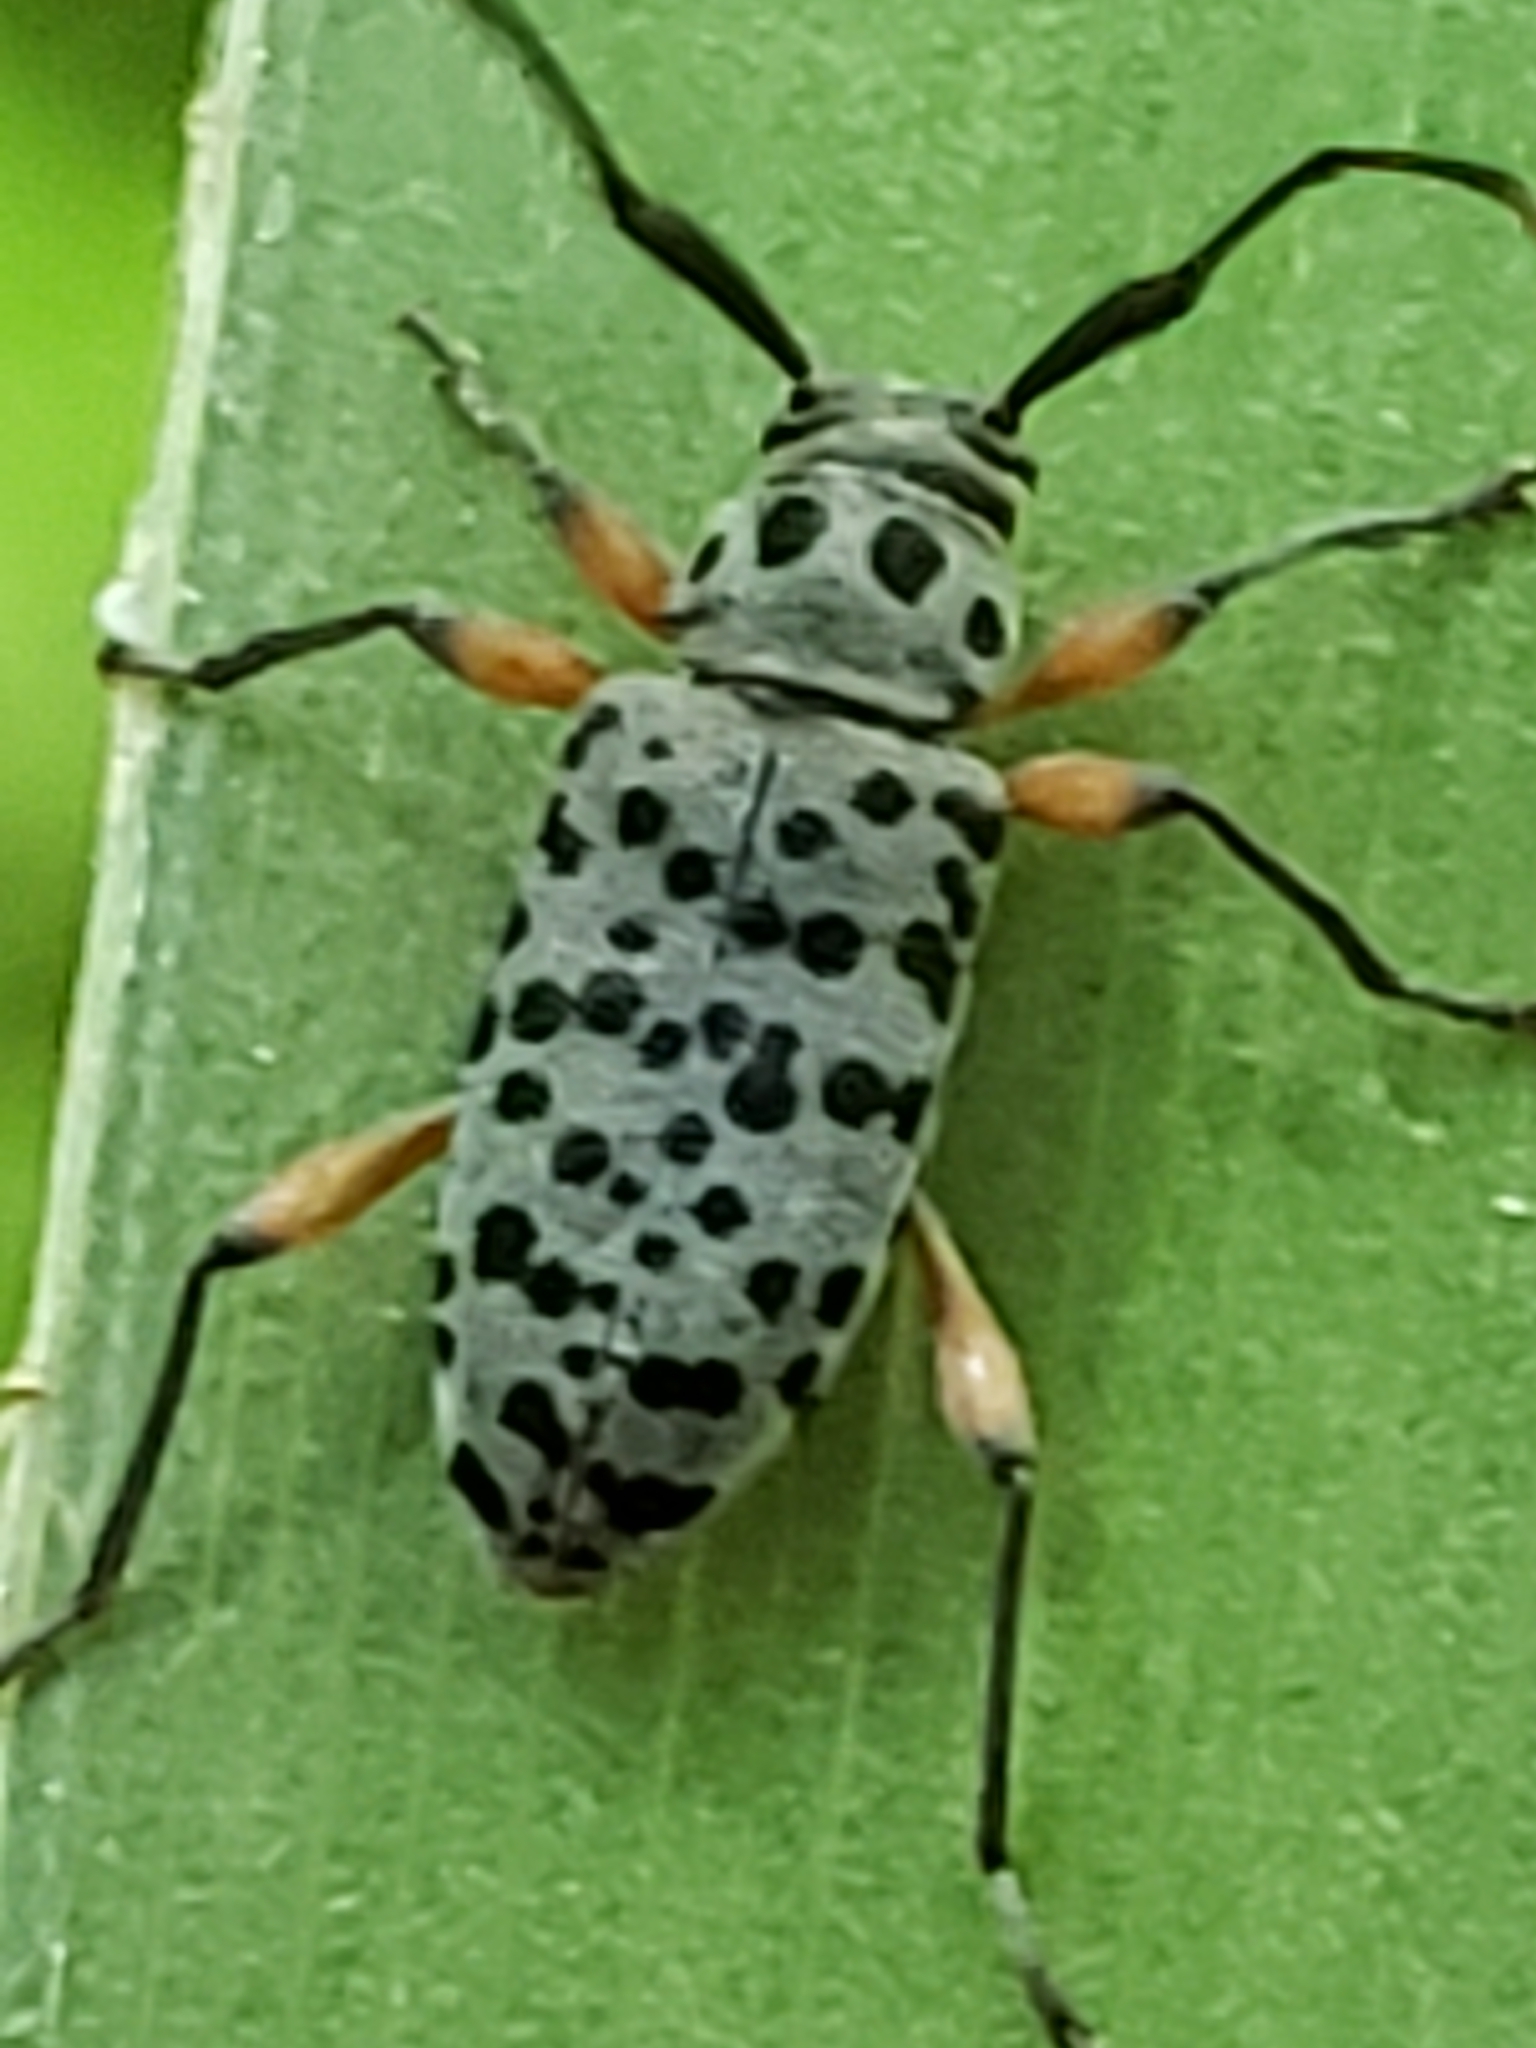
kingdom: Animalia
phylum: Arthropoda
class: Insecta
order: Coleoptera
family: Cerambycidae
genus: Hyperplatys
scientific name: Hyperplatys aspersa
